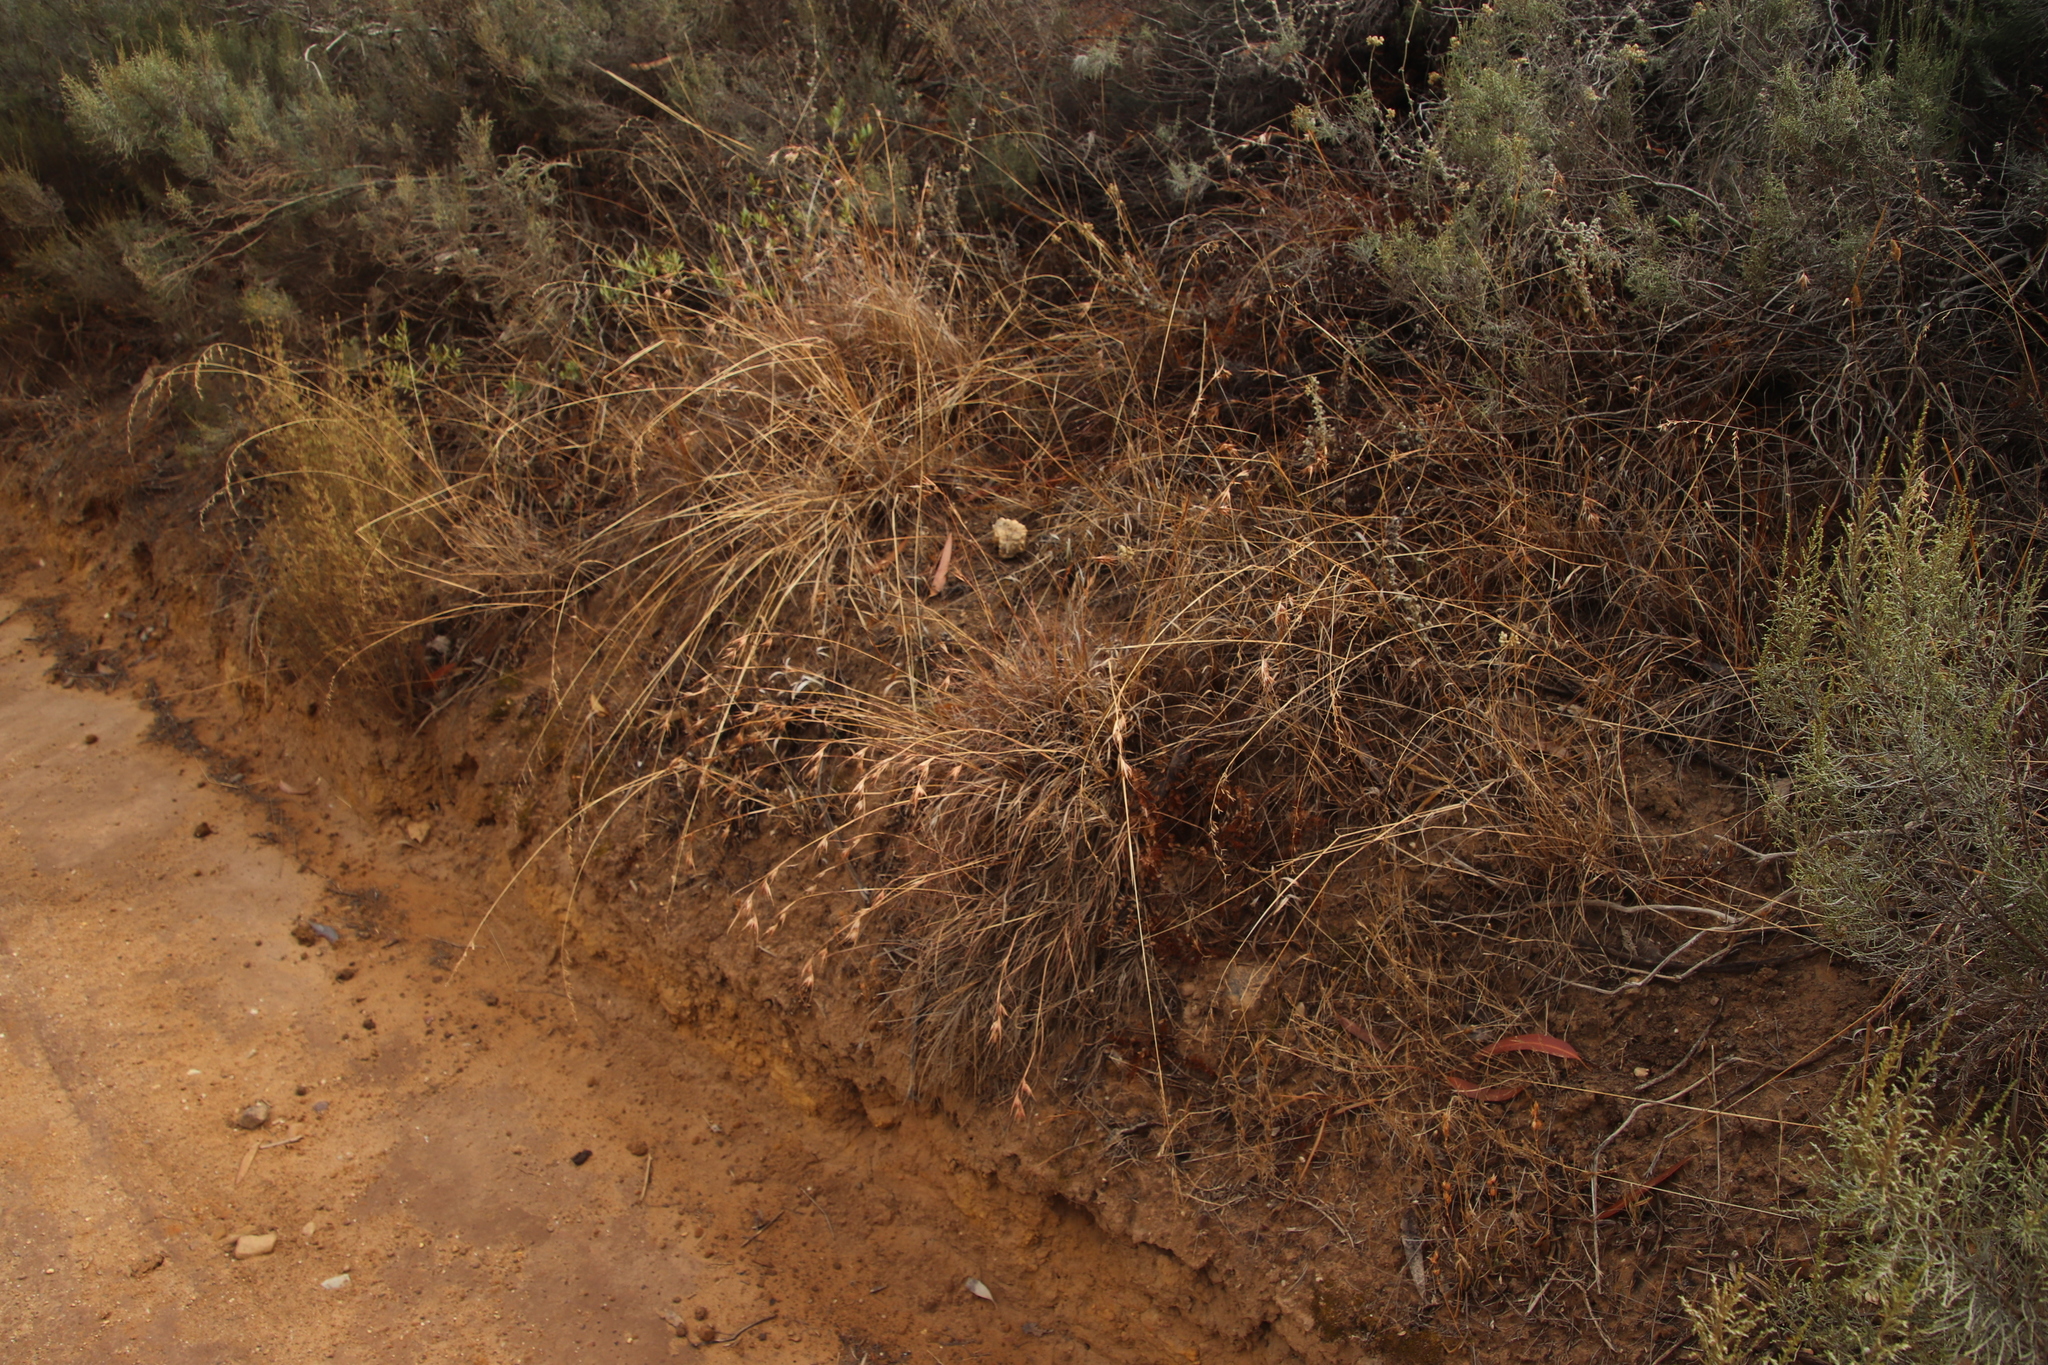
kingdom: Plantae
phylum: Tracheophyta
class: Liliopsida
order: Poales
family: Poaceae
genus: Themeda
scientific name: Themeda triandra
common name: Kangaroo grass
